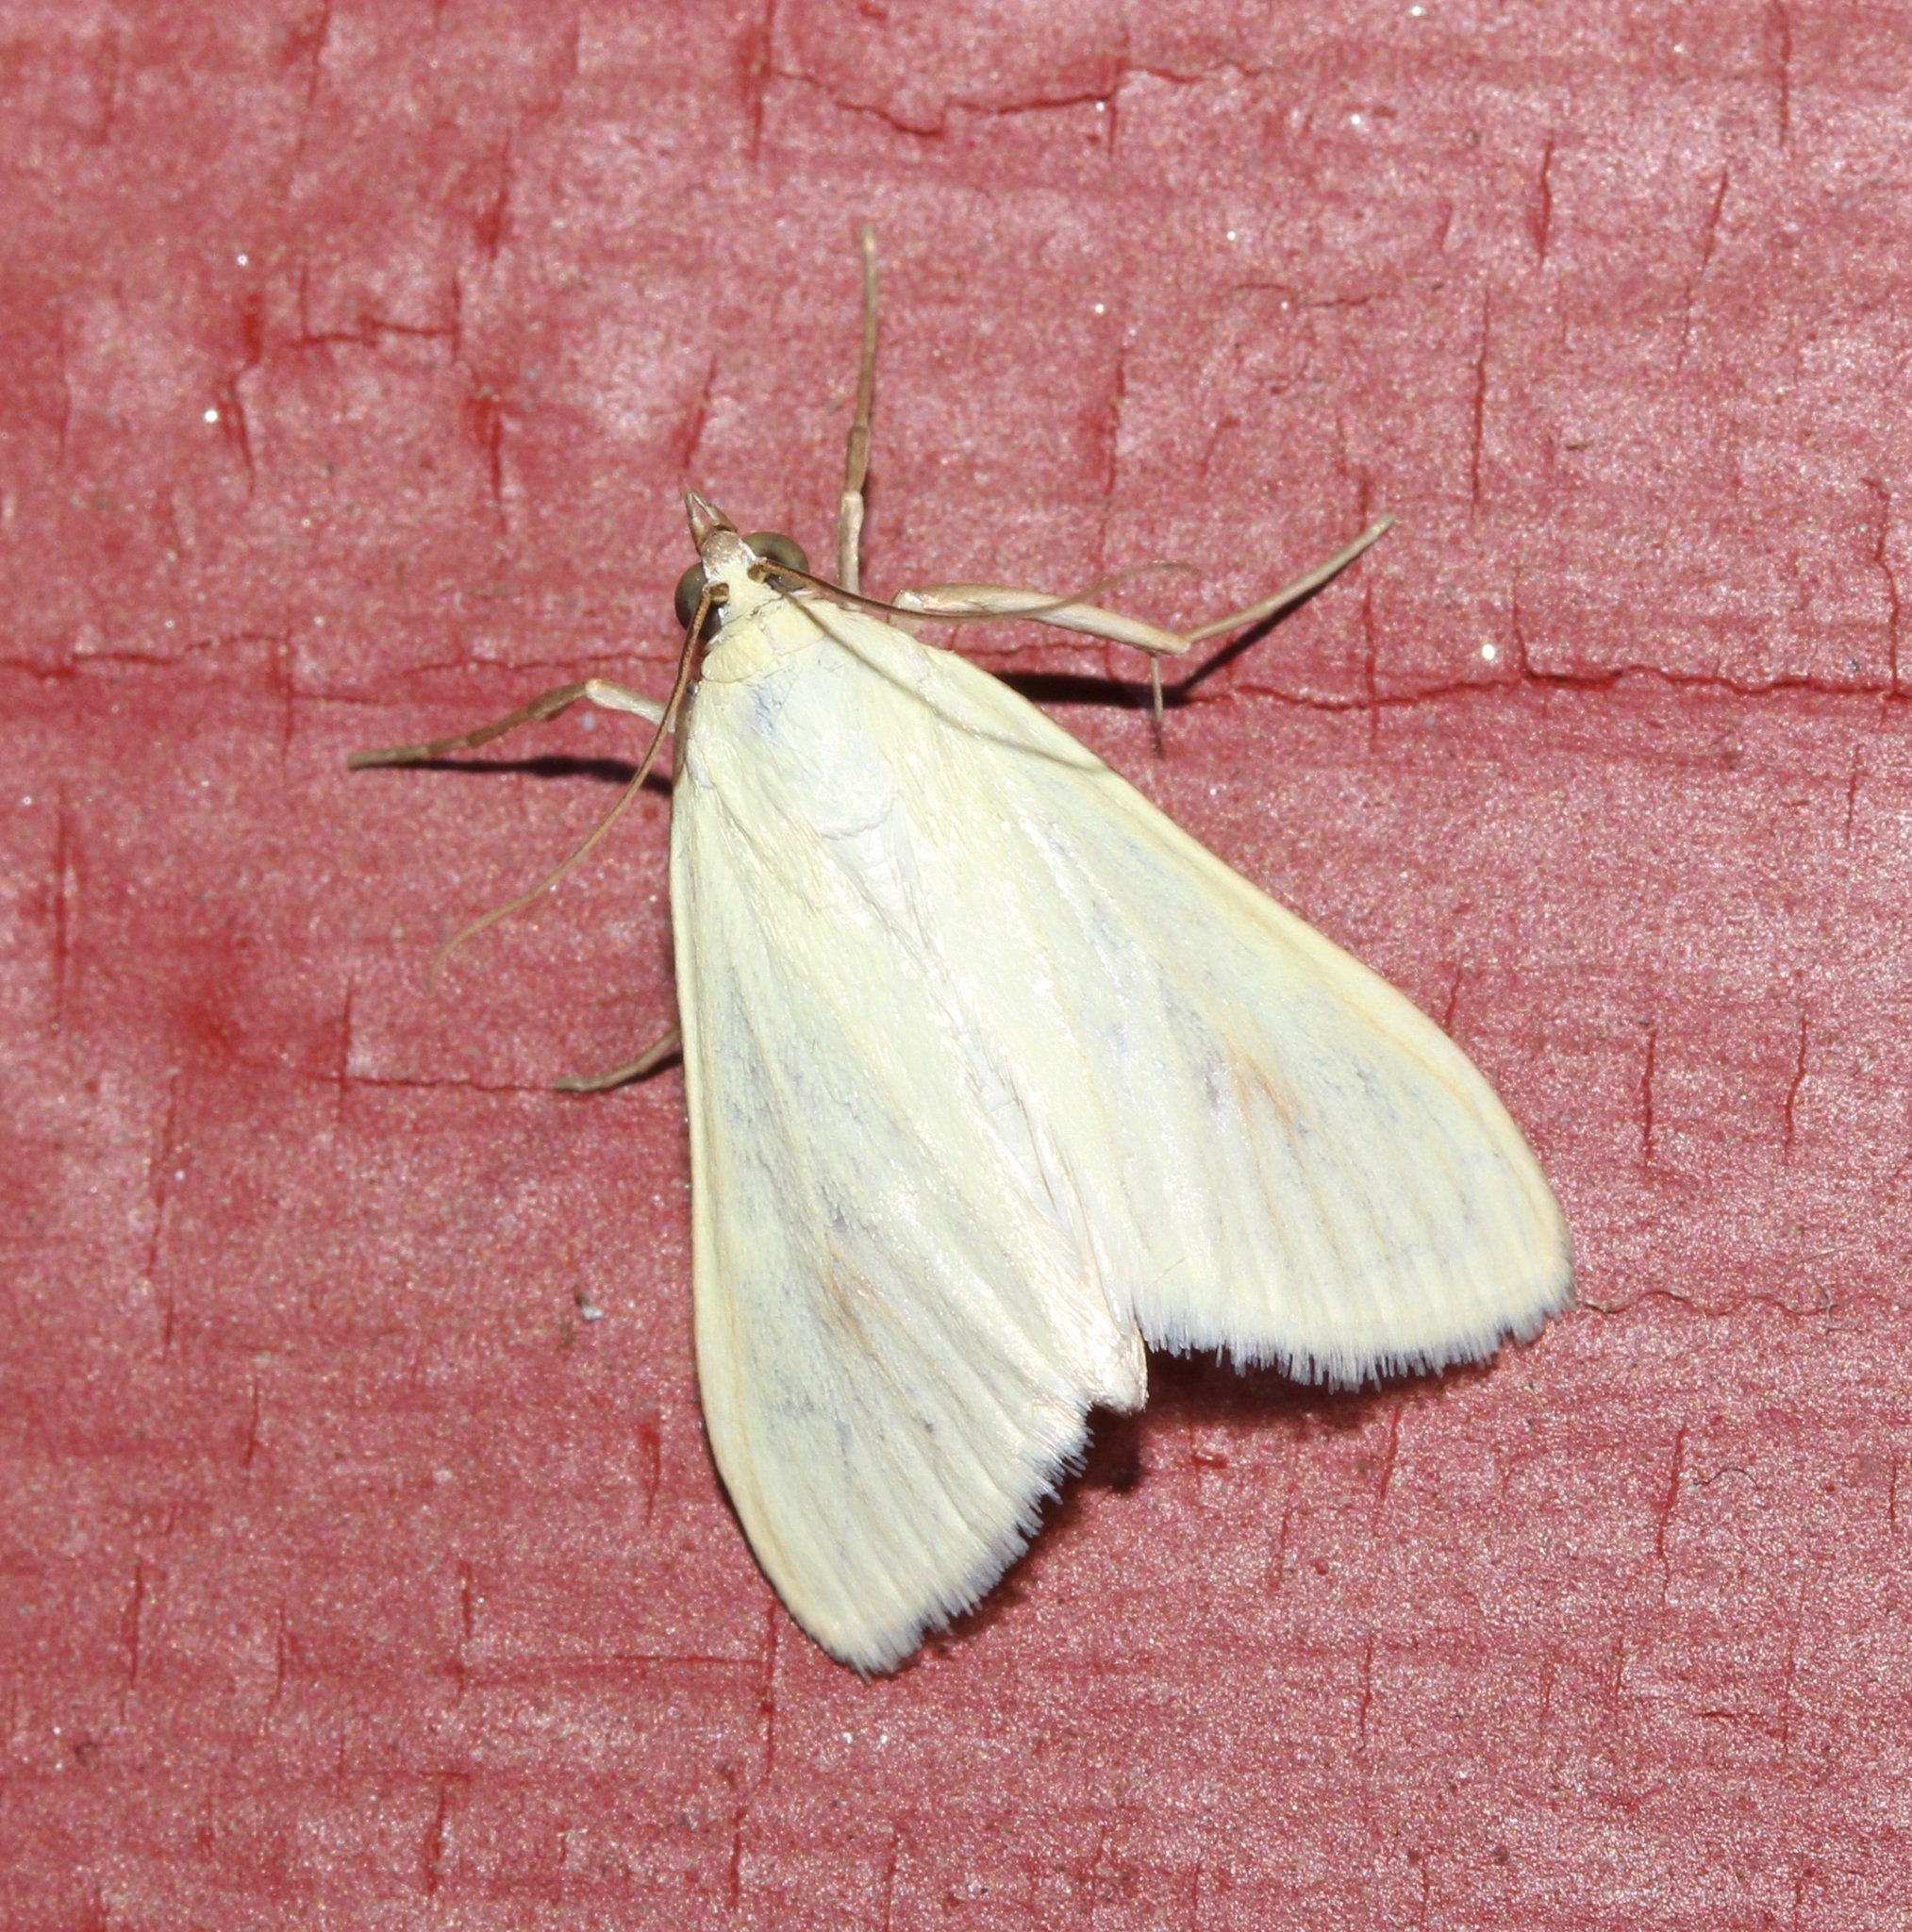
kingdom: Animalia
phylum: Arthropoda
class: Insecta
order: Lepidoptera
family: Crambidae
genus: Sitochroa
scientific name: Sitochroa palealis
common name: Greenish-yellow sitochroa moth
